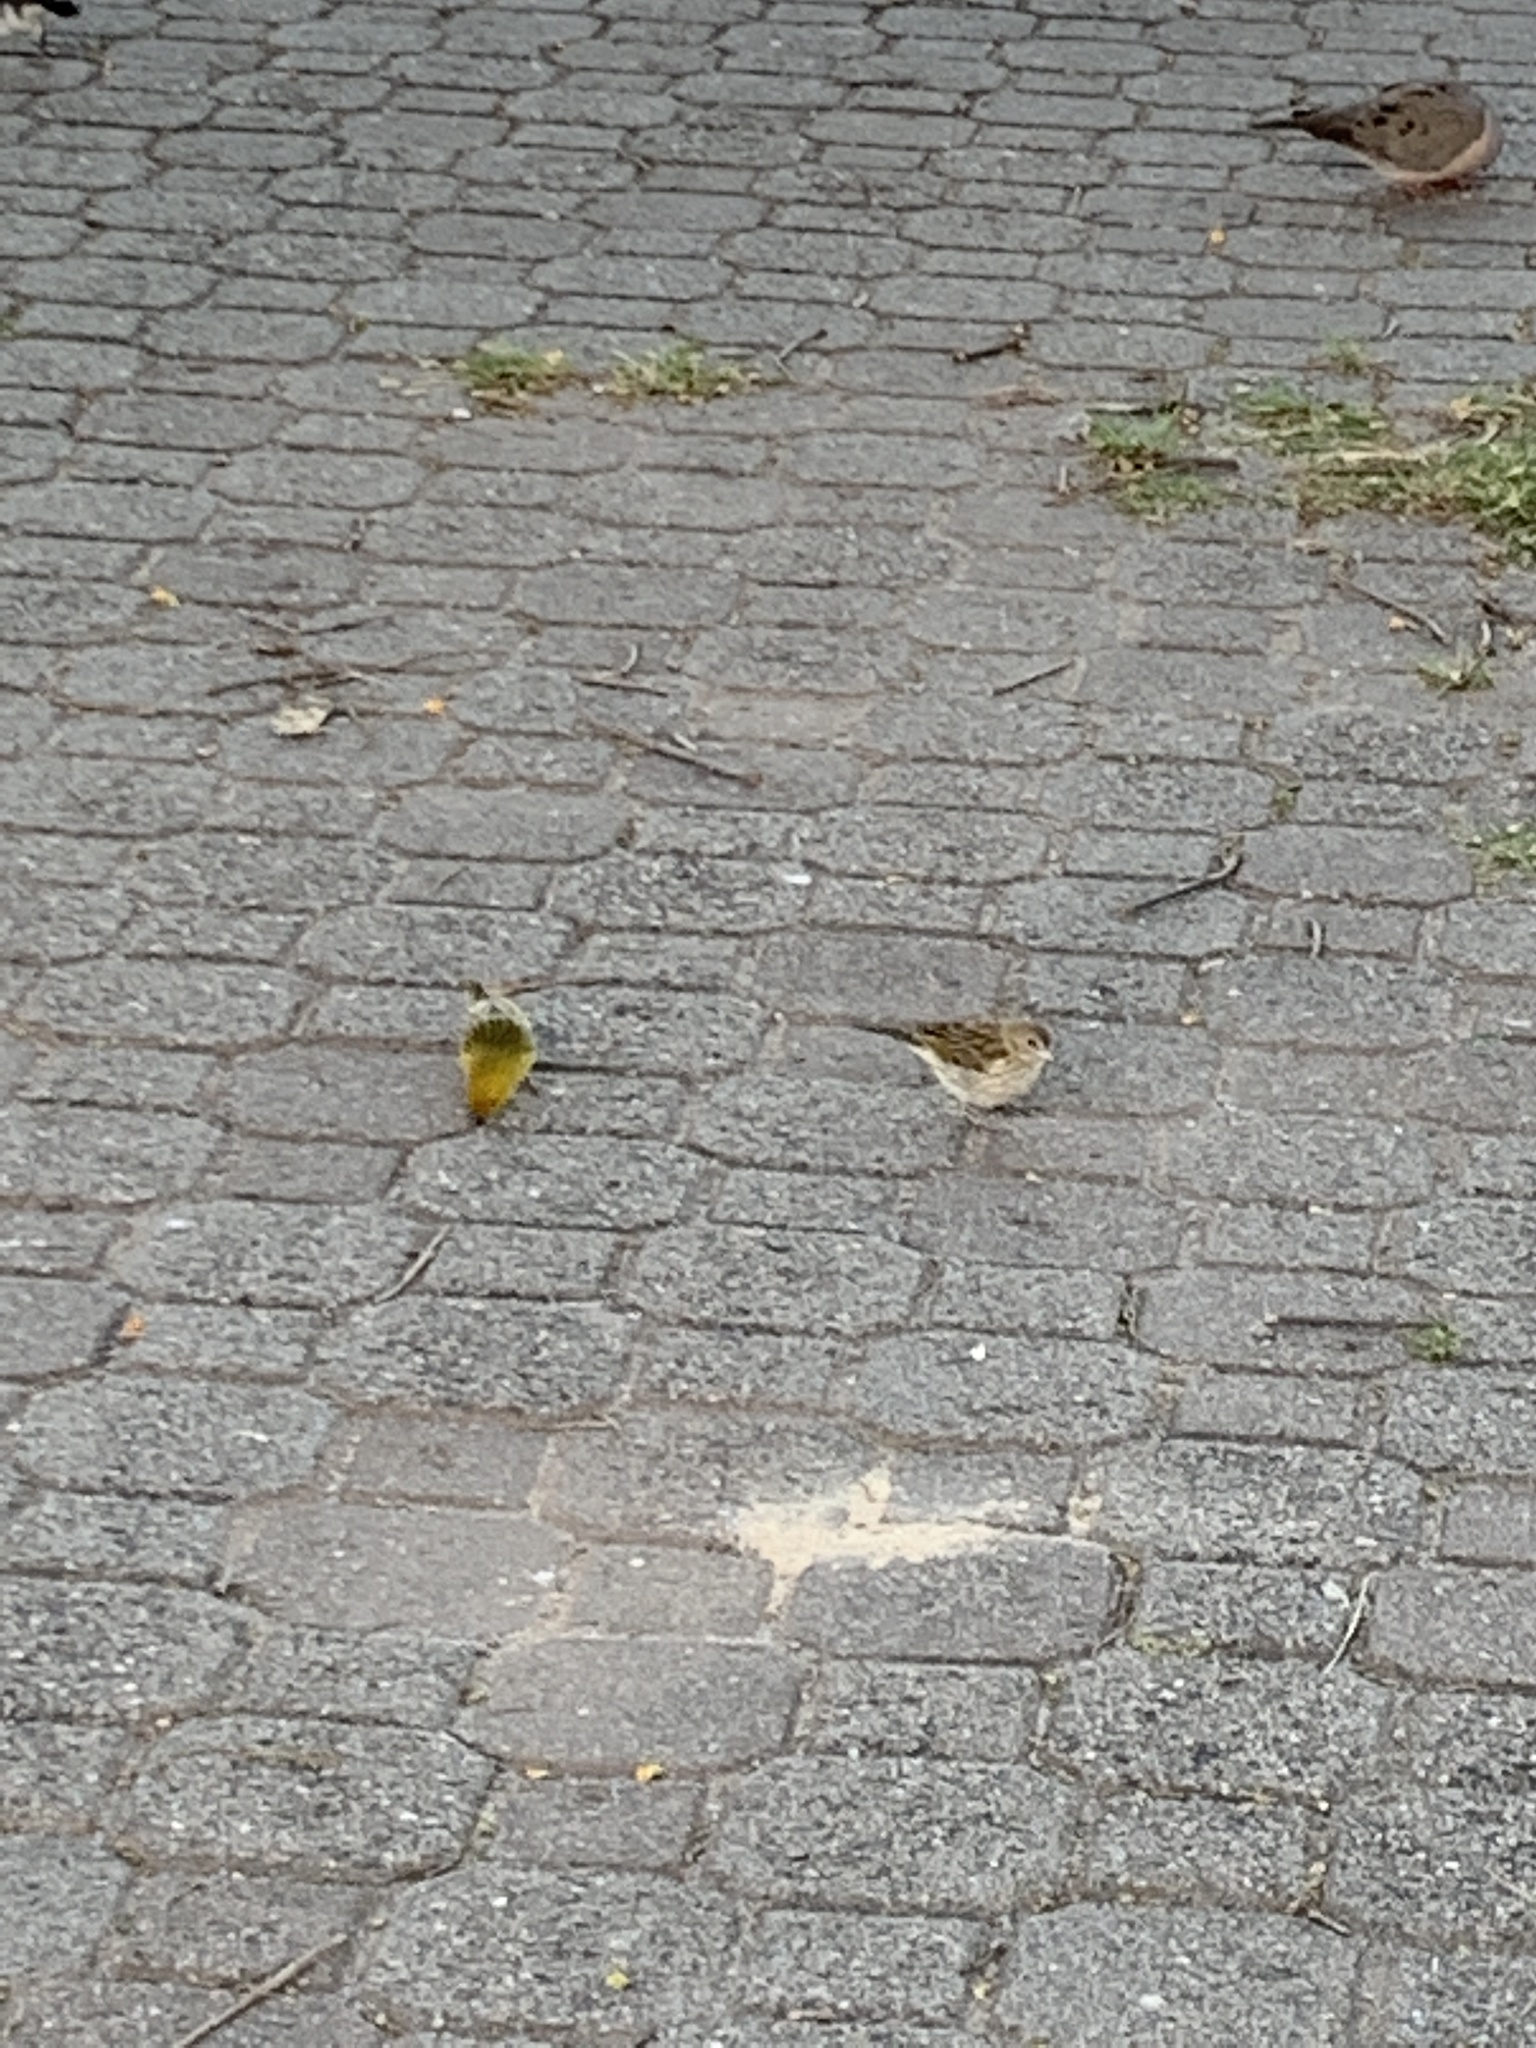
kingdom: Animalia
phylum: Chordata
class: Aves
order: Passeriformes
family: Thraupidae
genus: Sicalis
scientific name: Sicalis flaveola
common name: Saffron finch
